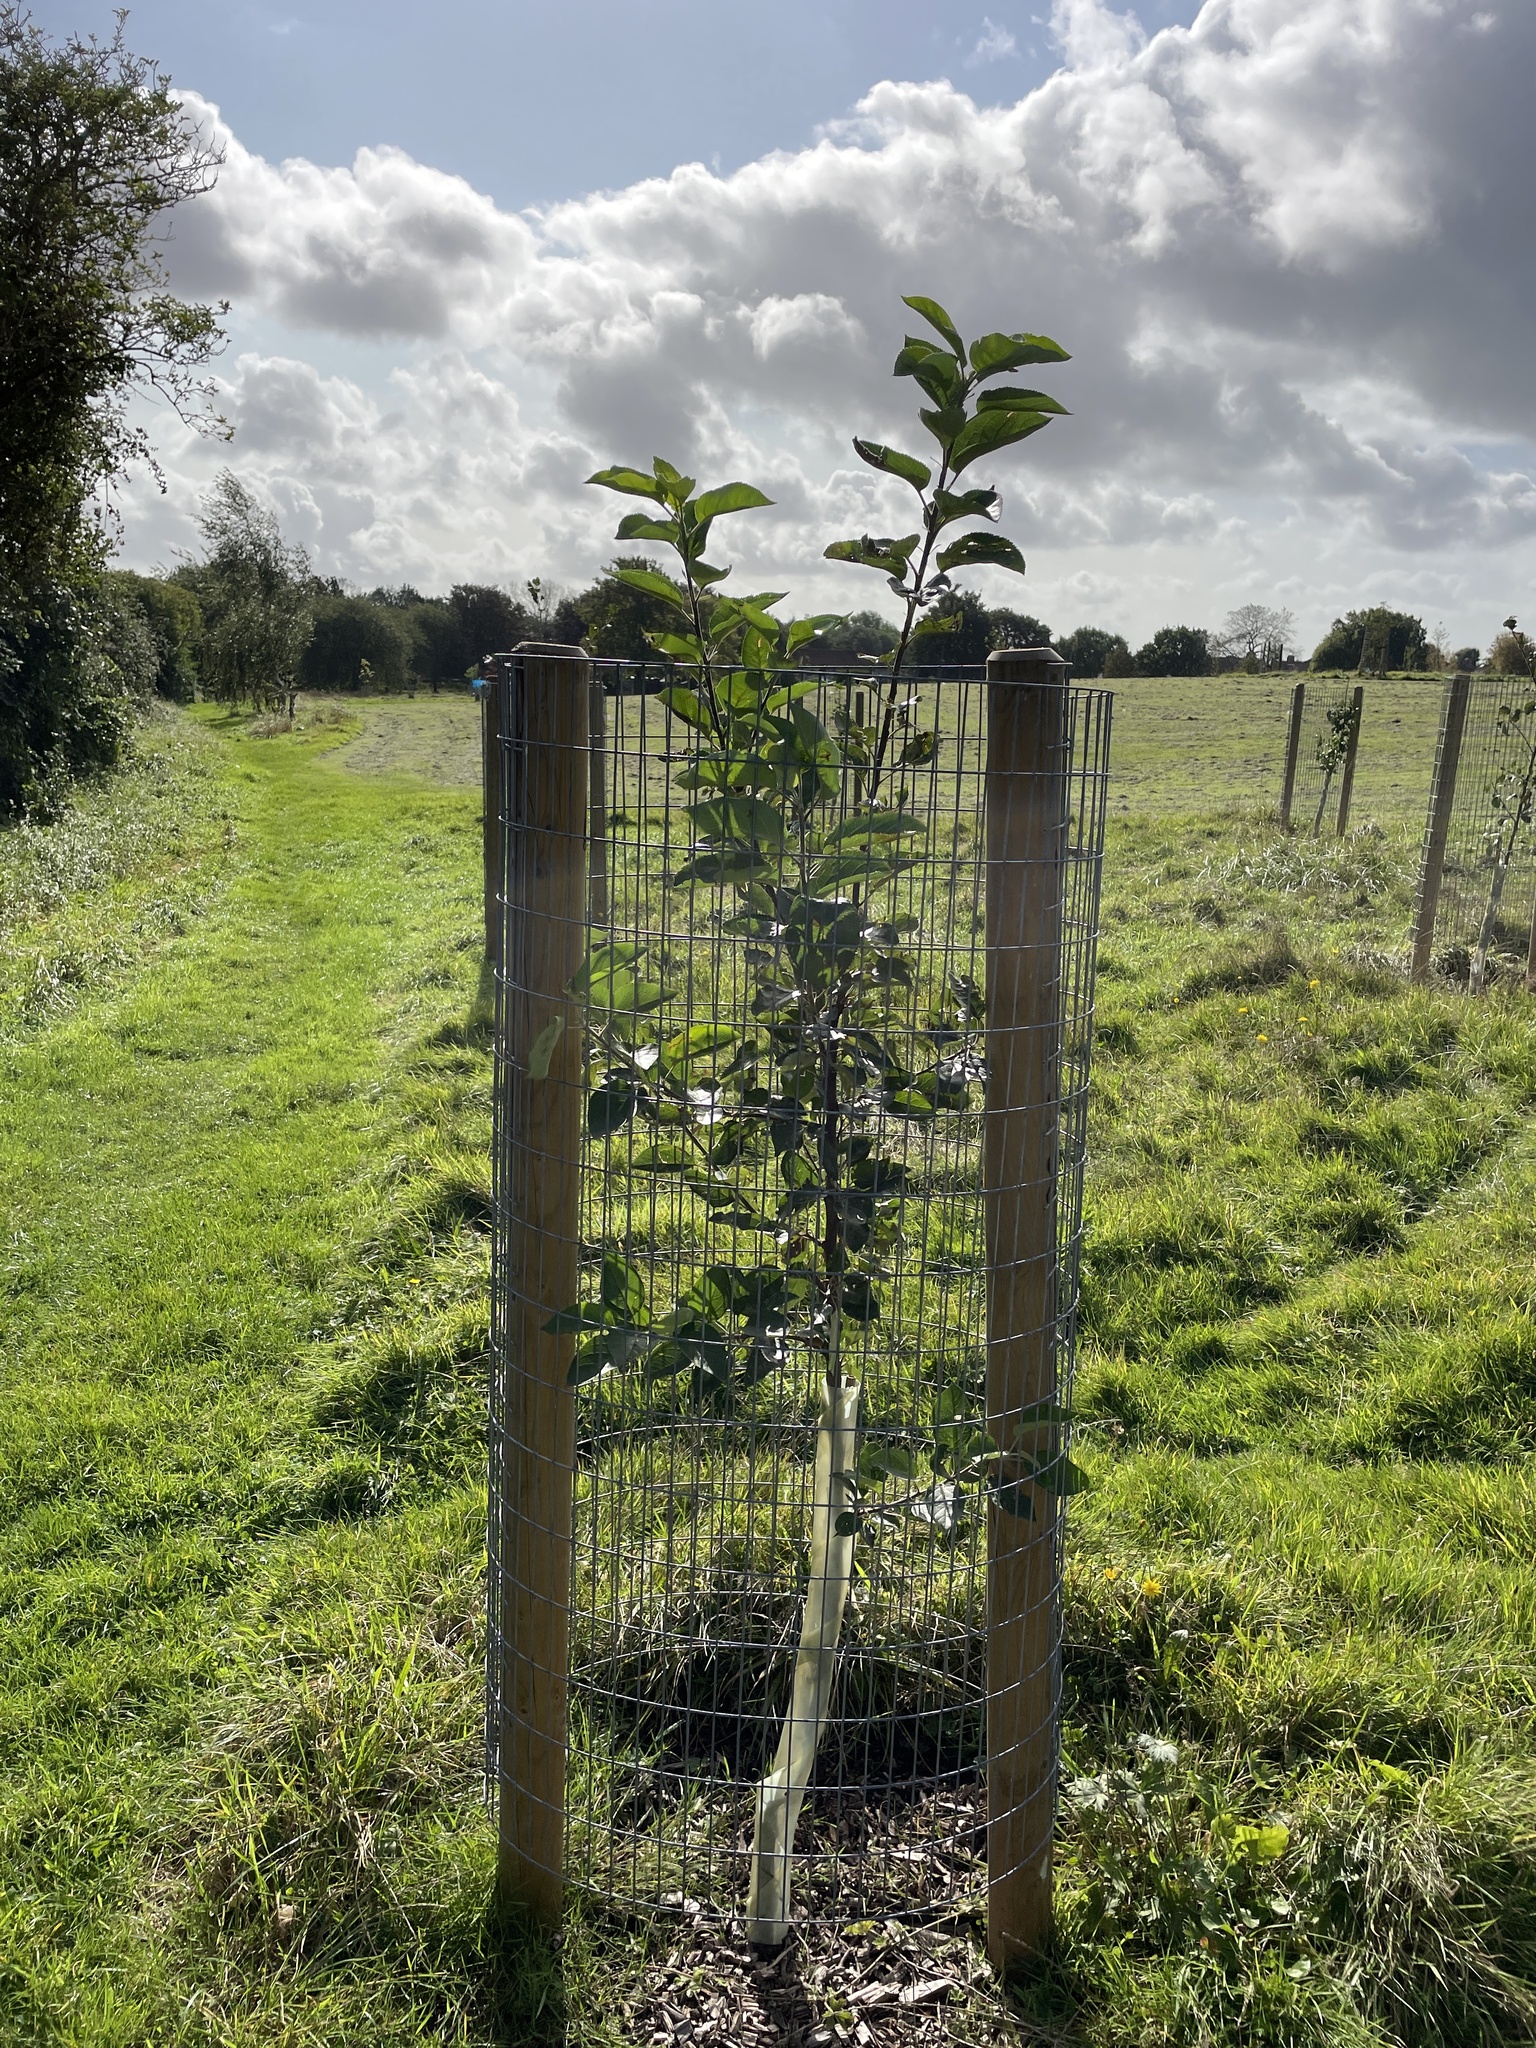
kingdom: Plantae
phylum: Tracheophyta
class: Magnoliopsida
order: Rosales
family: Rosaceae
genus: Malus
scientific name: Malus domestica
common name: Apple
